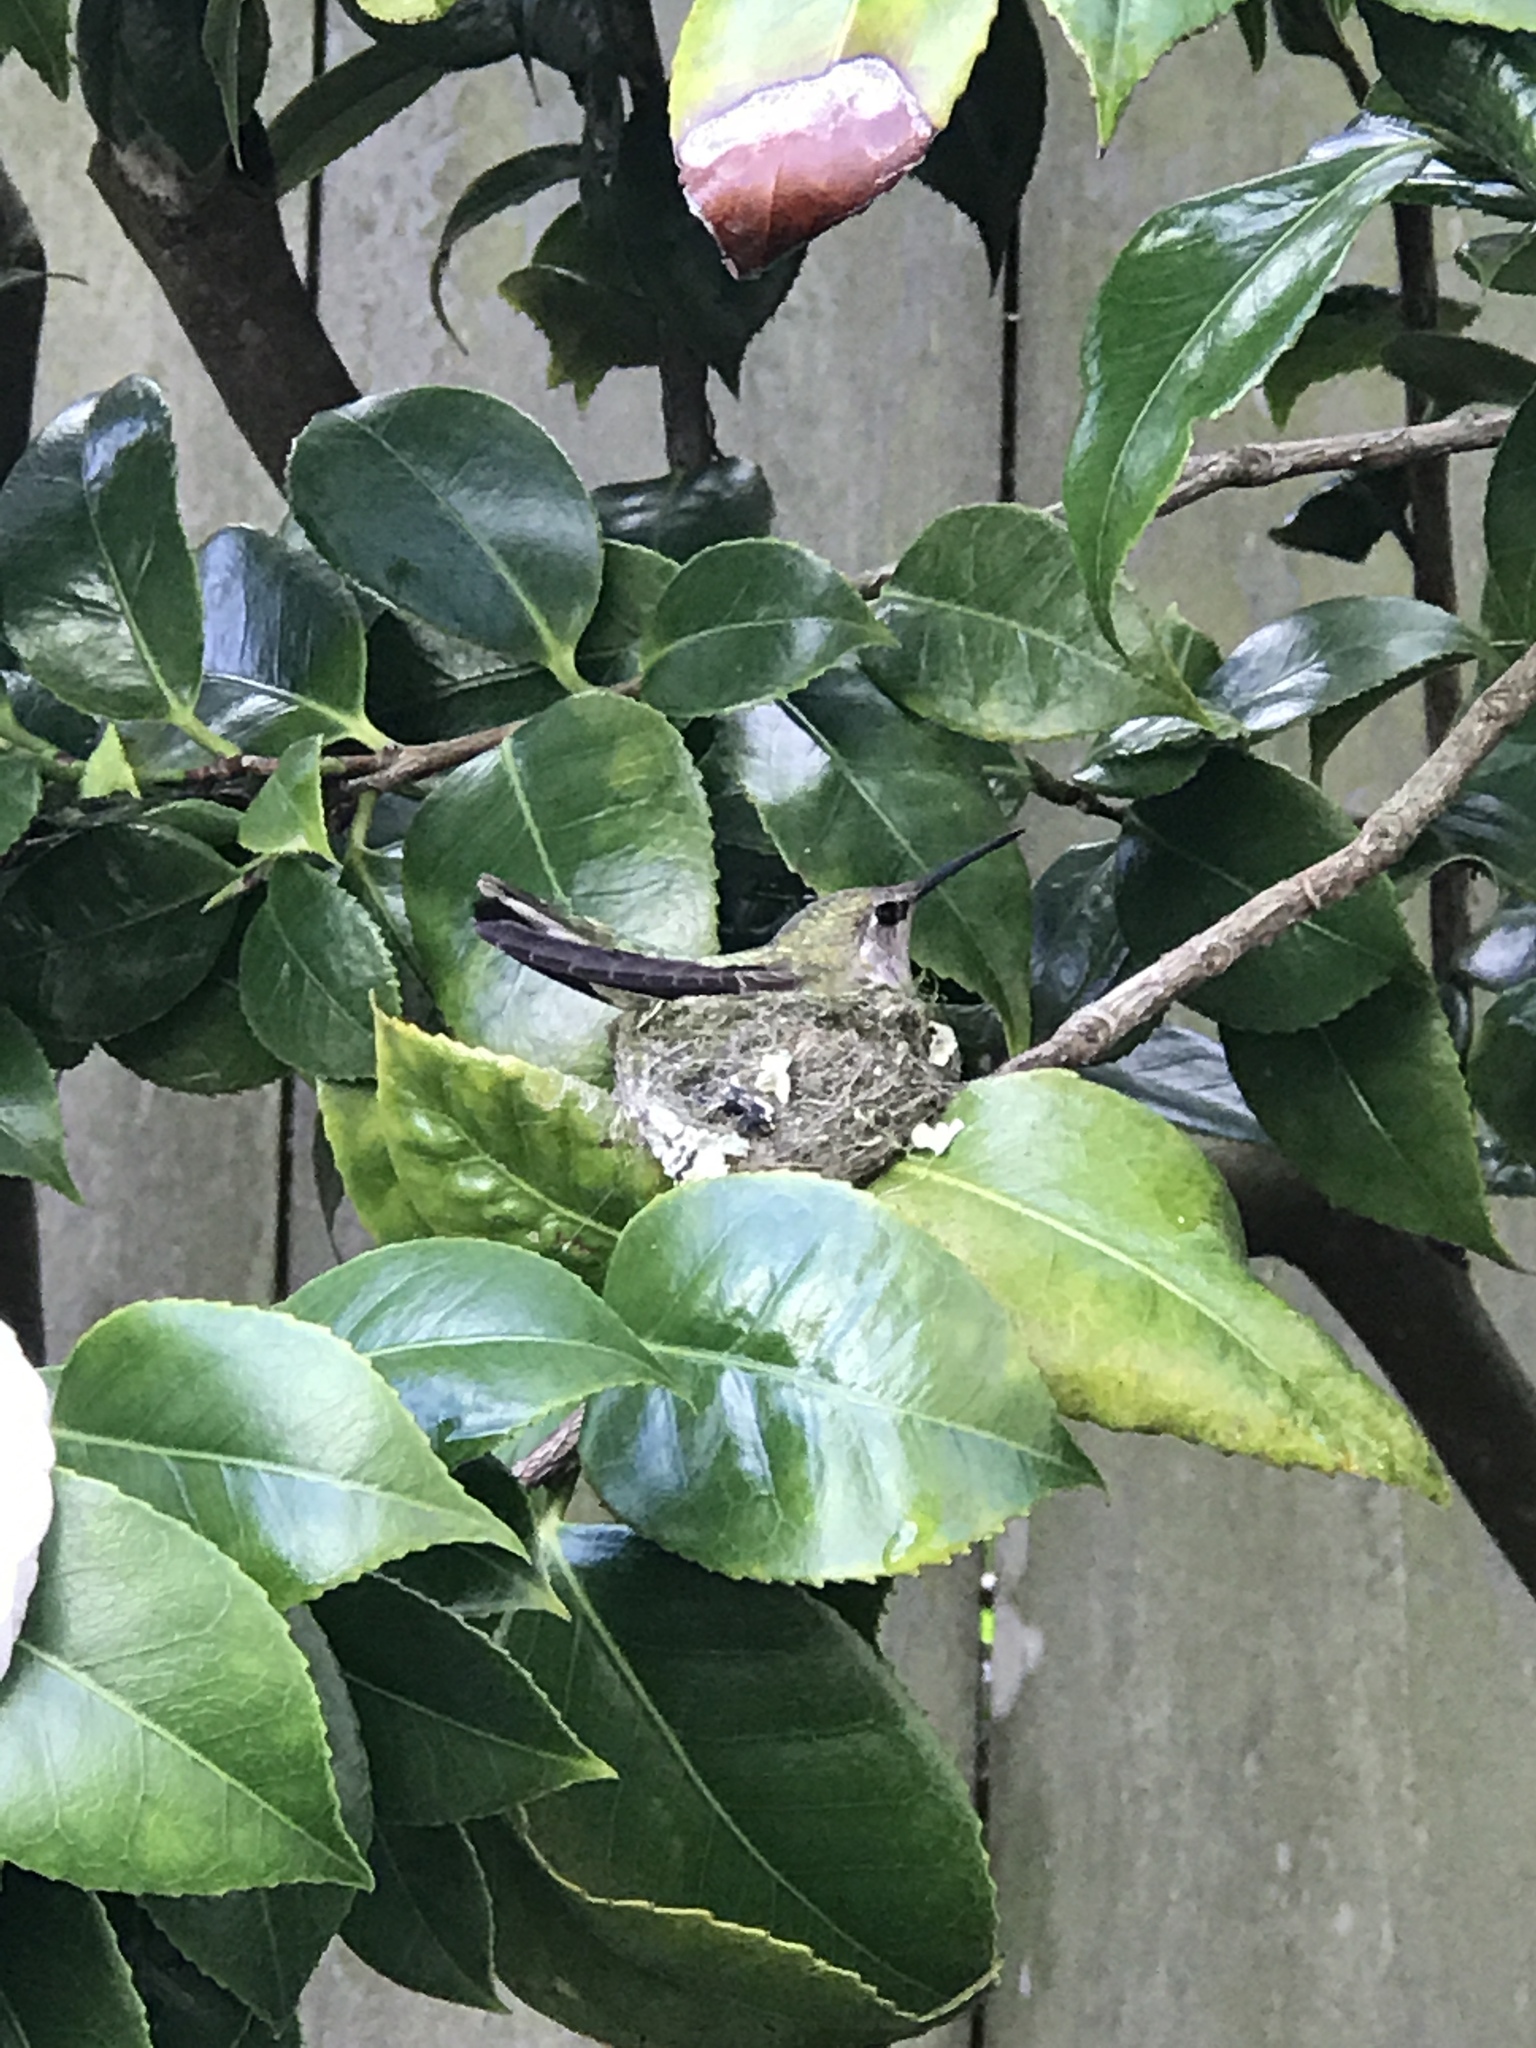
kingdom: Animalia
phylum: Chordata
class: Aves
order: Apodiformes
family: Trochilidae
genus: Calypte
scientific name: Calypte anna
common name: Anna's hummingbird
